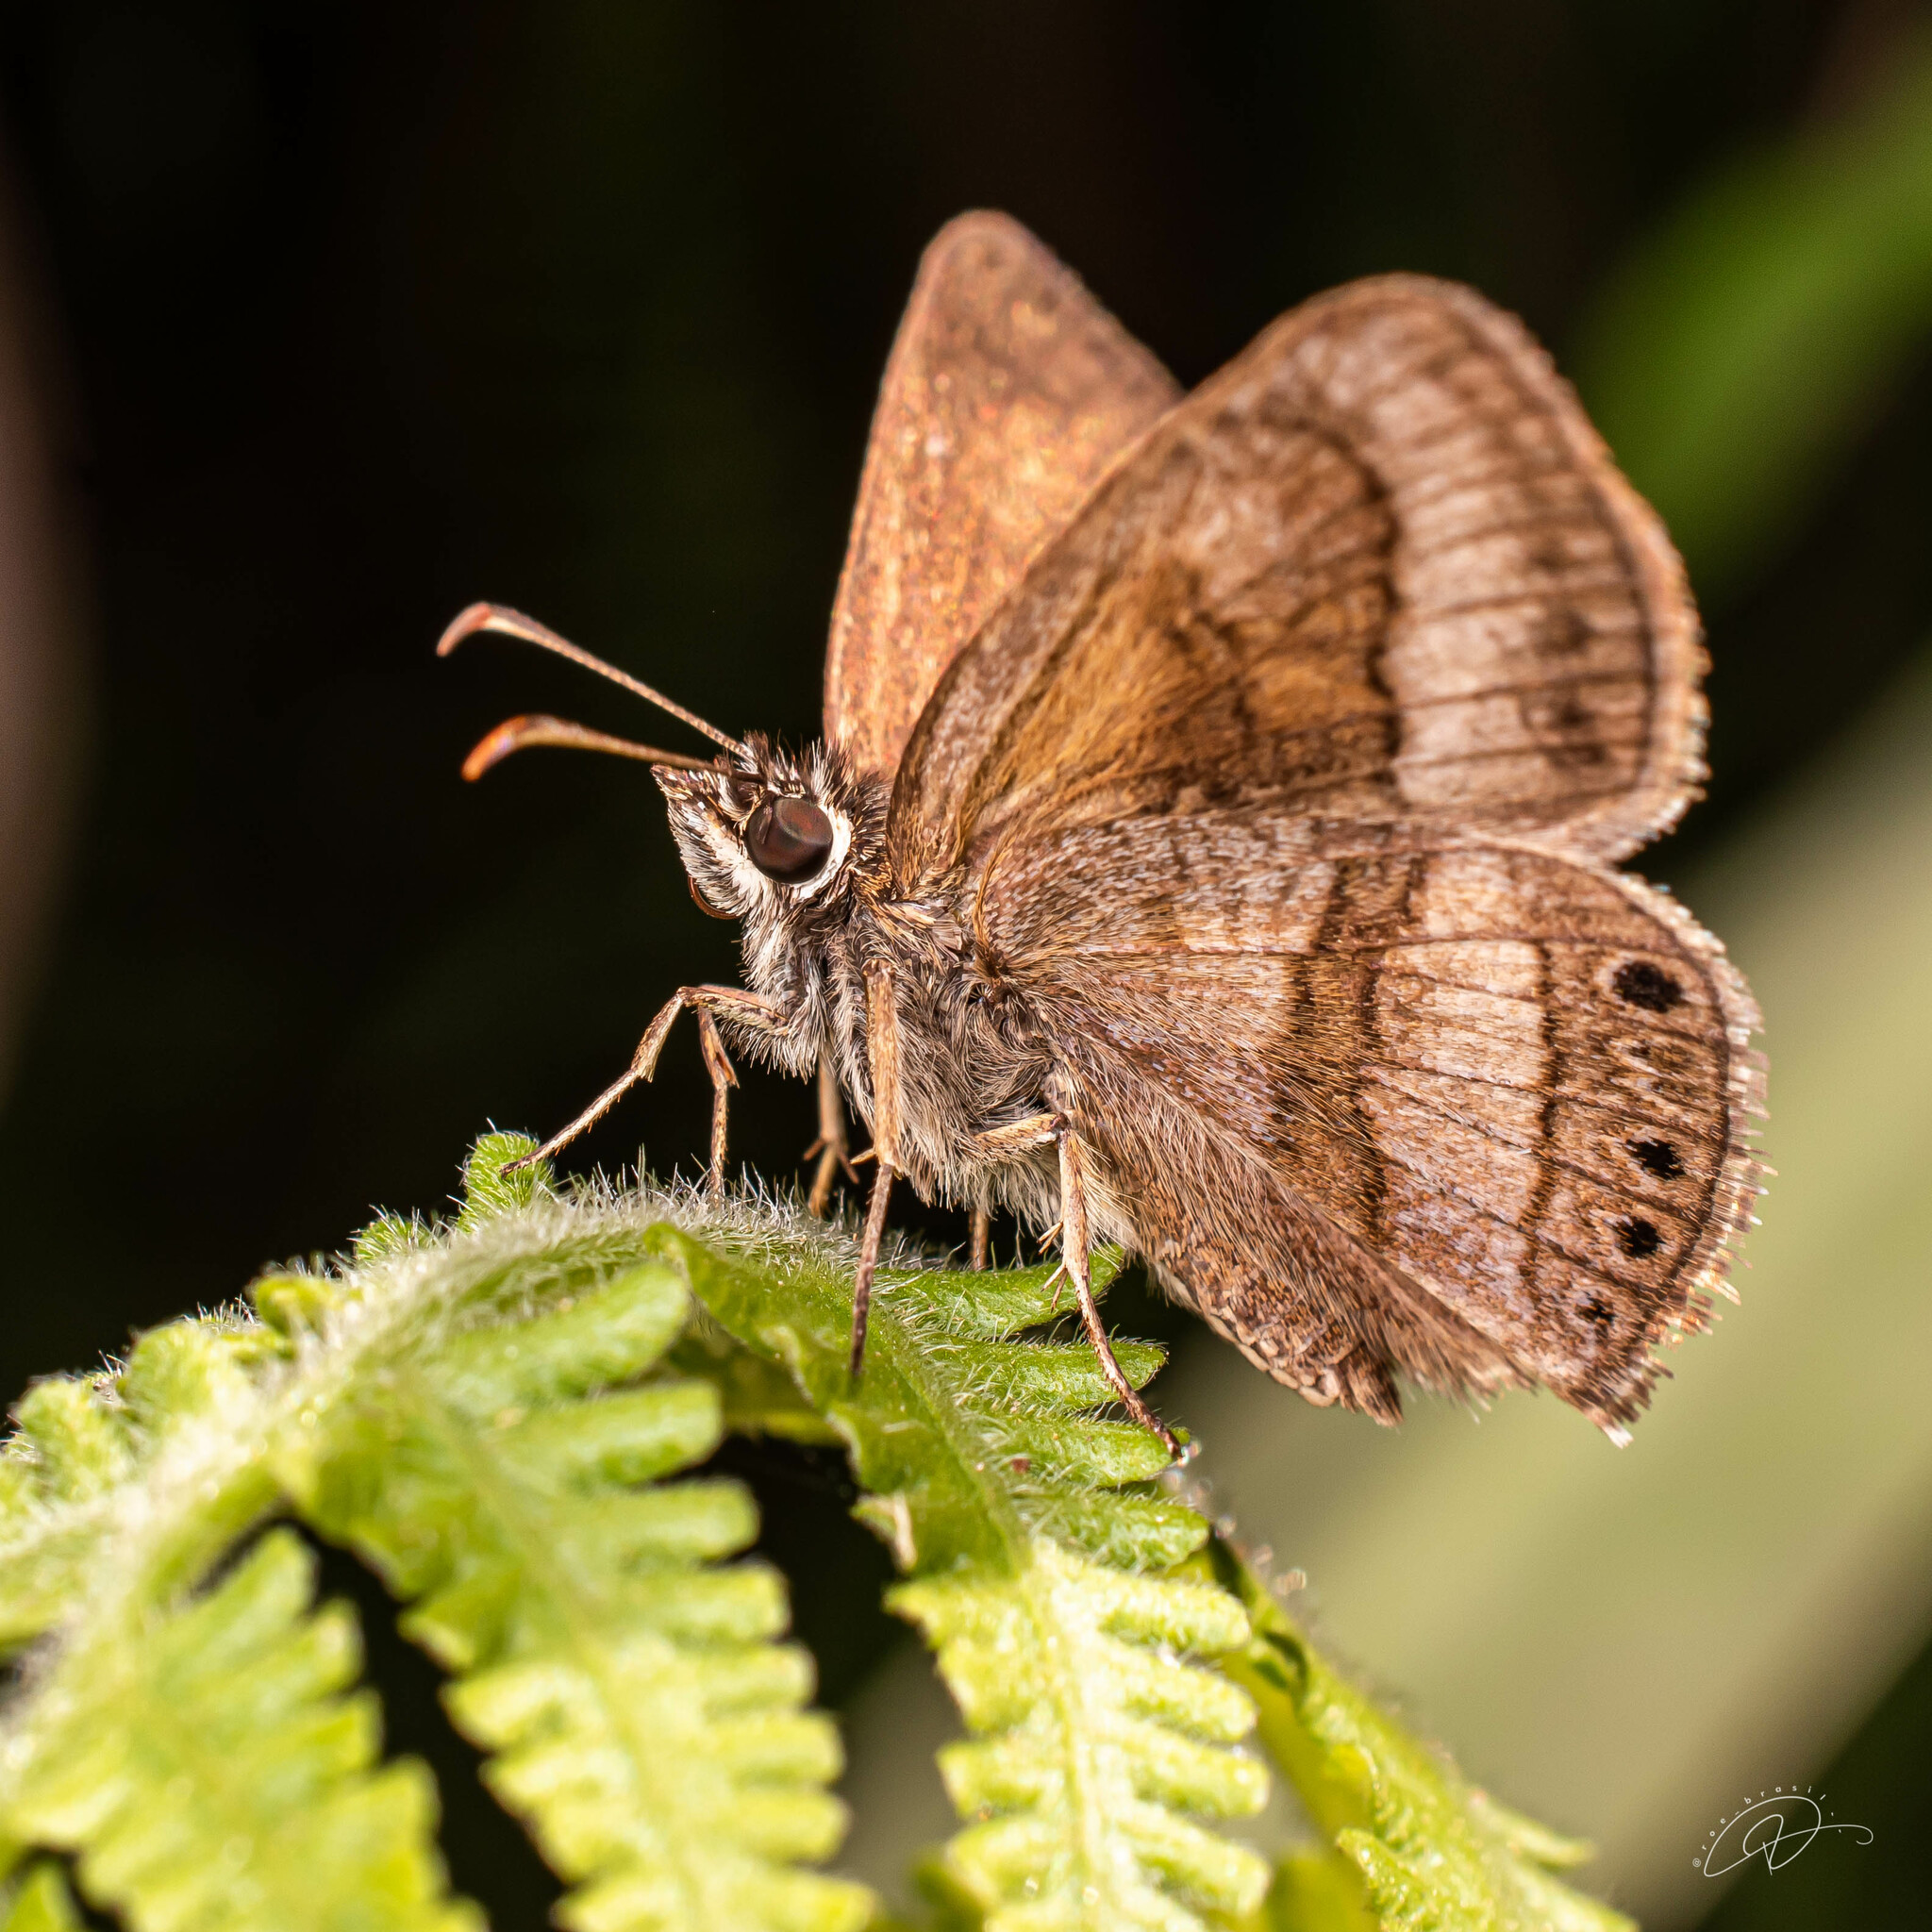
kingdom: Animalia
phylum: Arthropoda
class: Insecta
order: Lepidoptera
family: Hesperiidae
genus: Zopyrion
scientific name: Zopyrion
